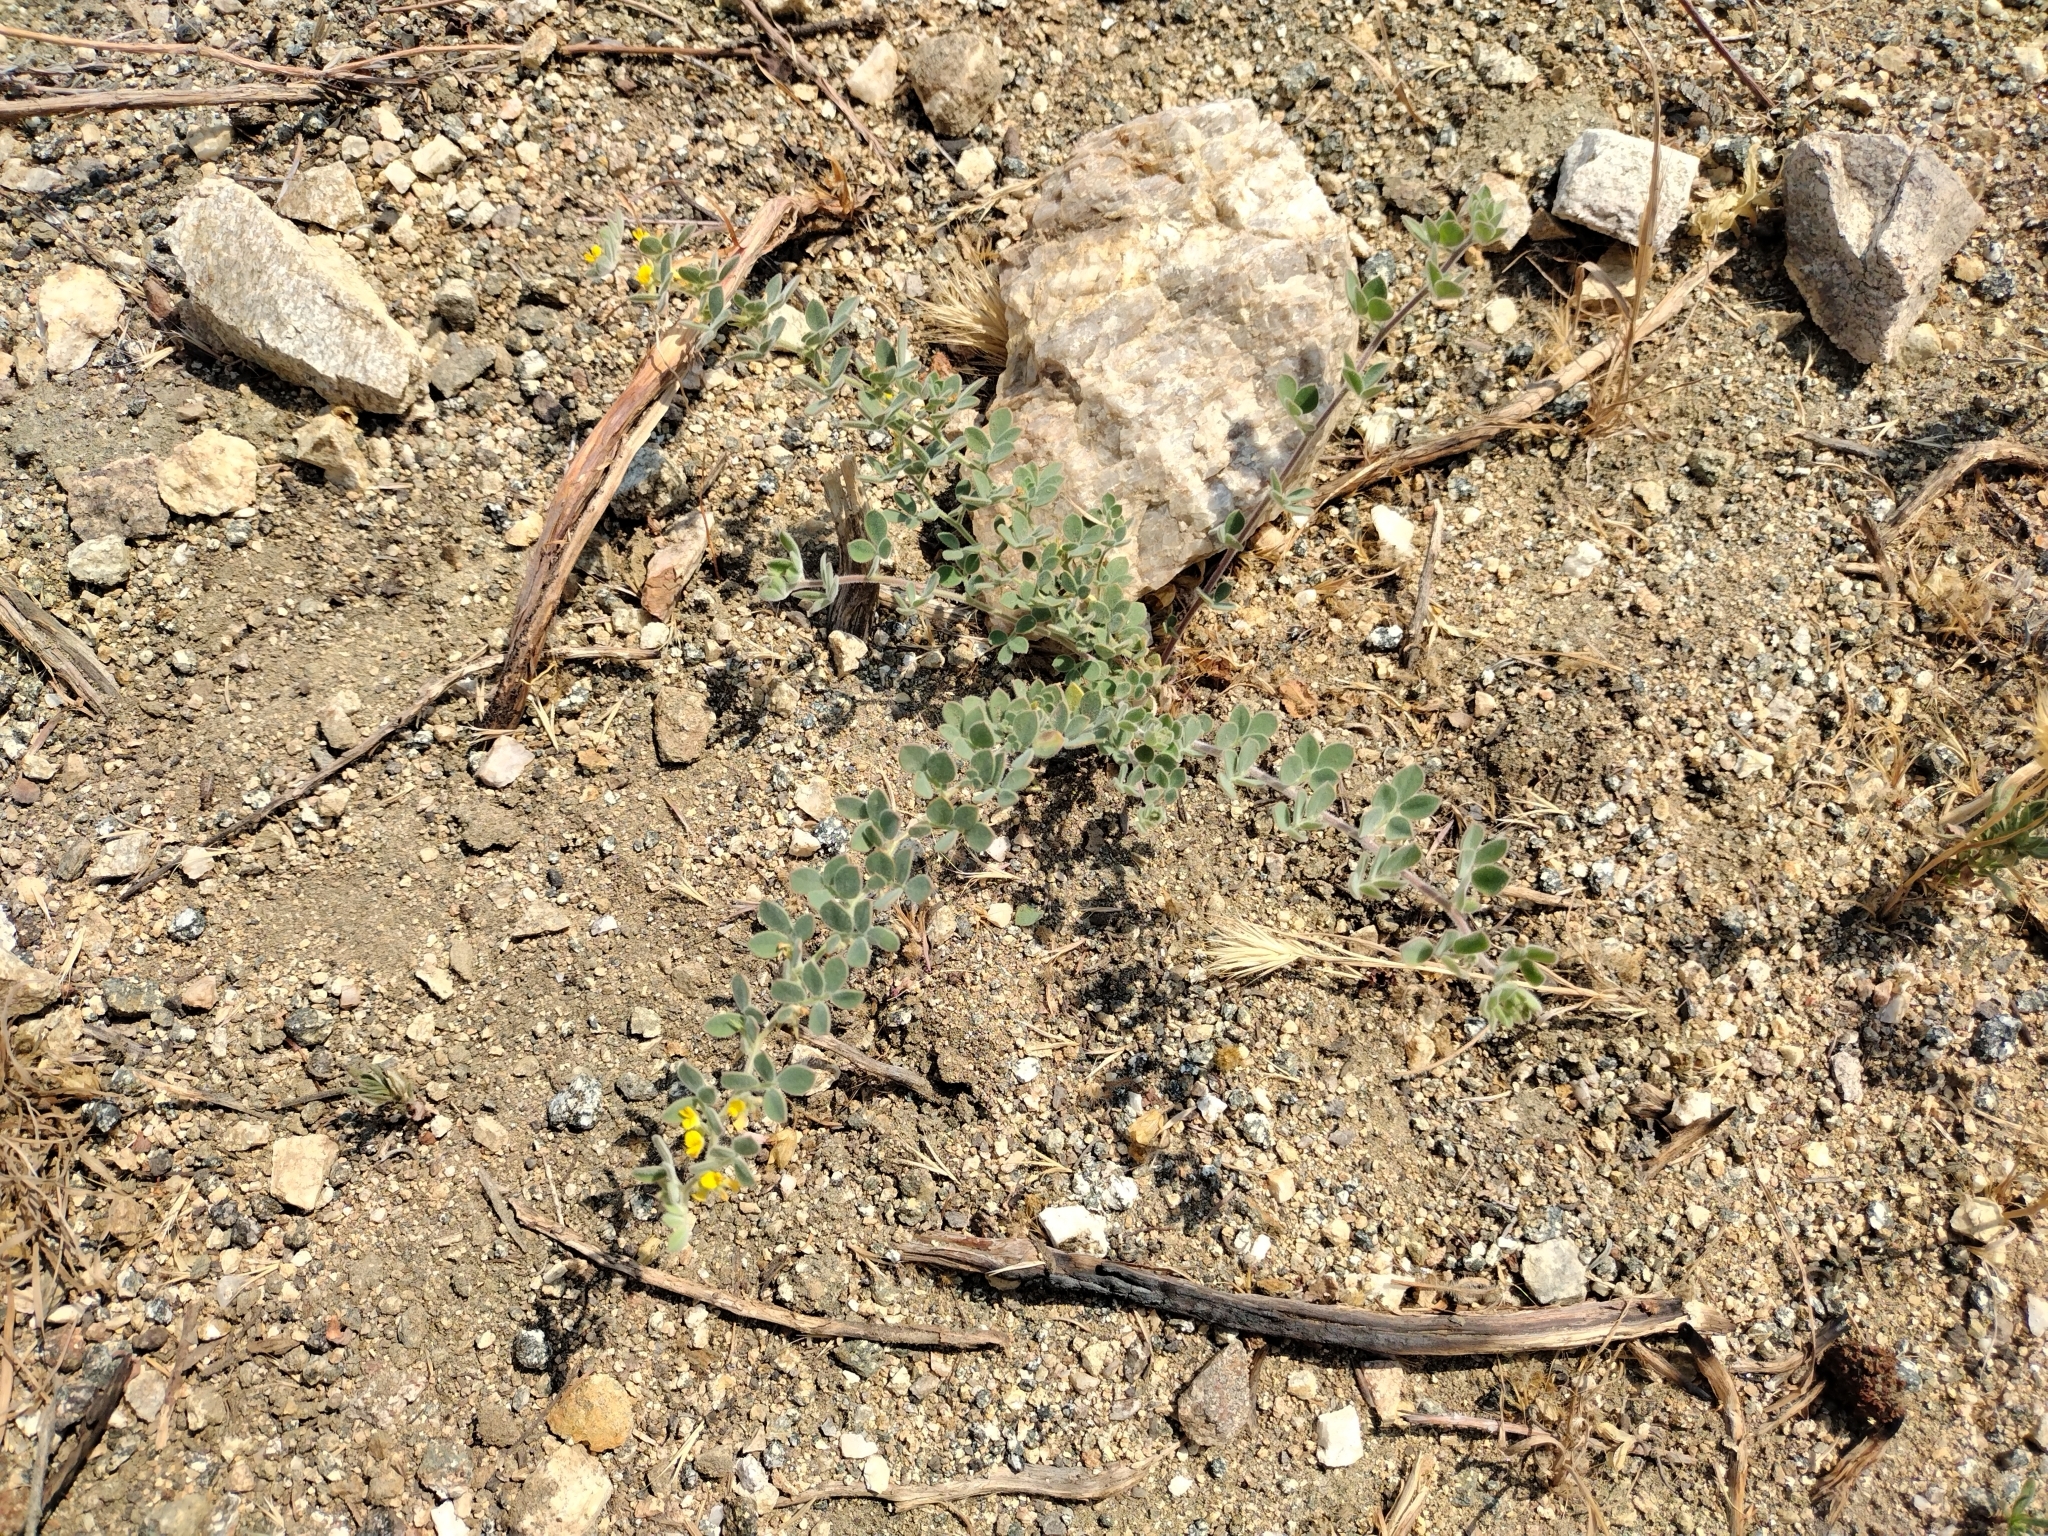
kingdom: Plantae
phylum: Tracheophyta
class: Magnoliopsida
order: Fabales
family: Fabaceae
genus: Acmispon
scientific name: Acmispon tomentosus
